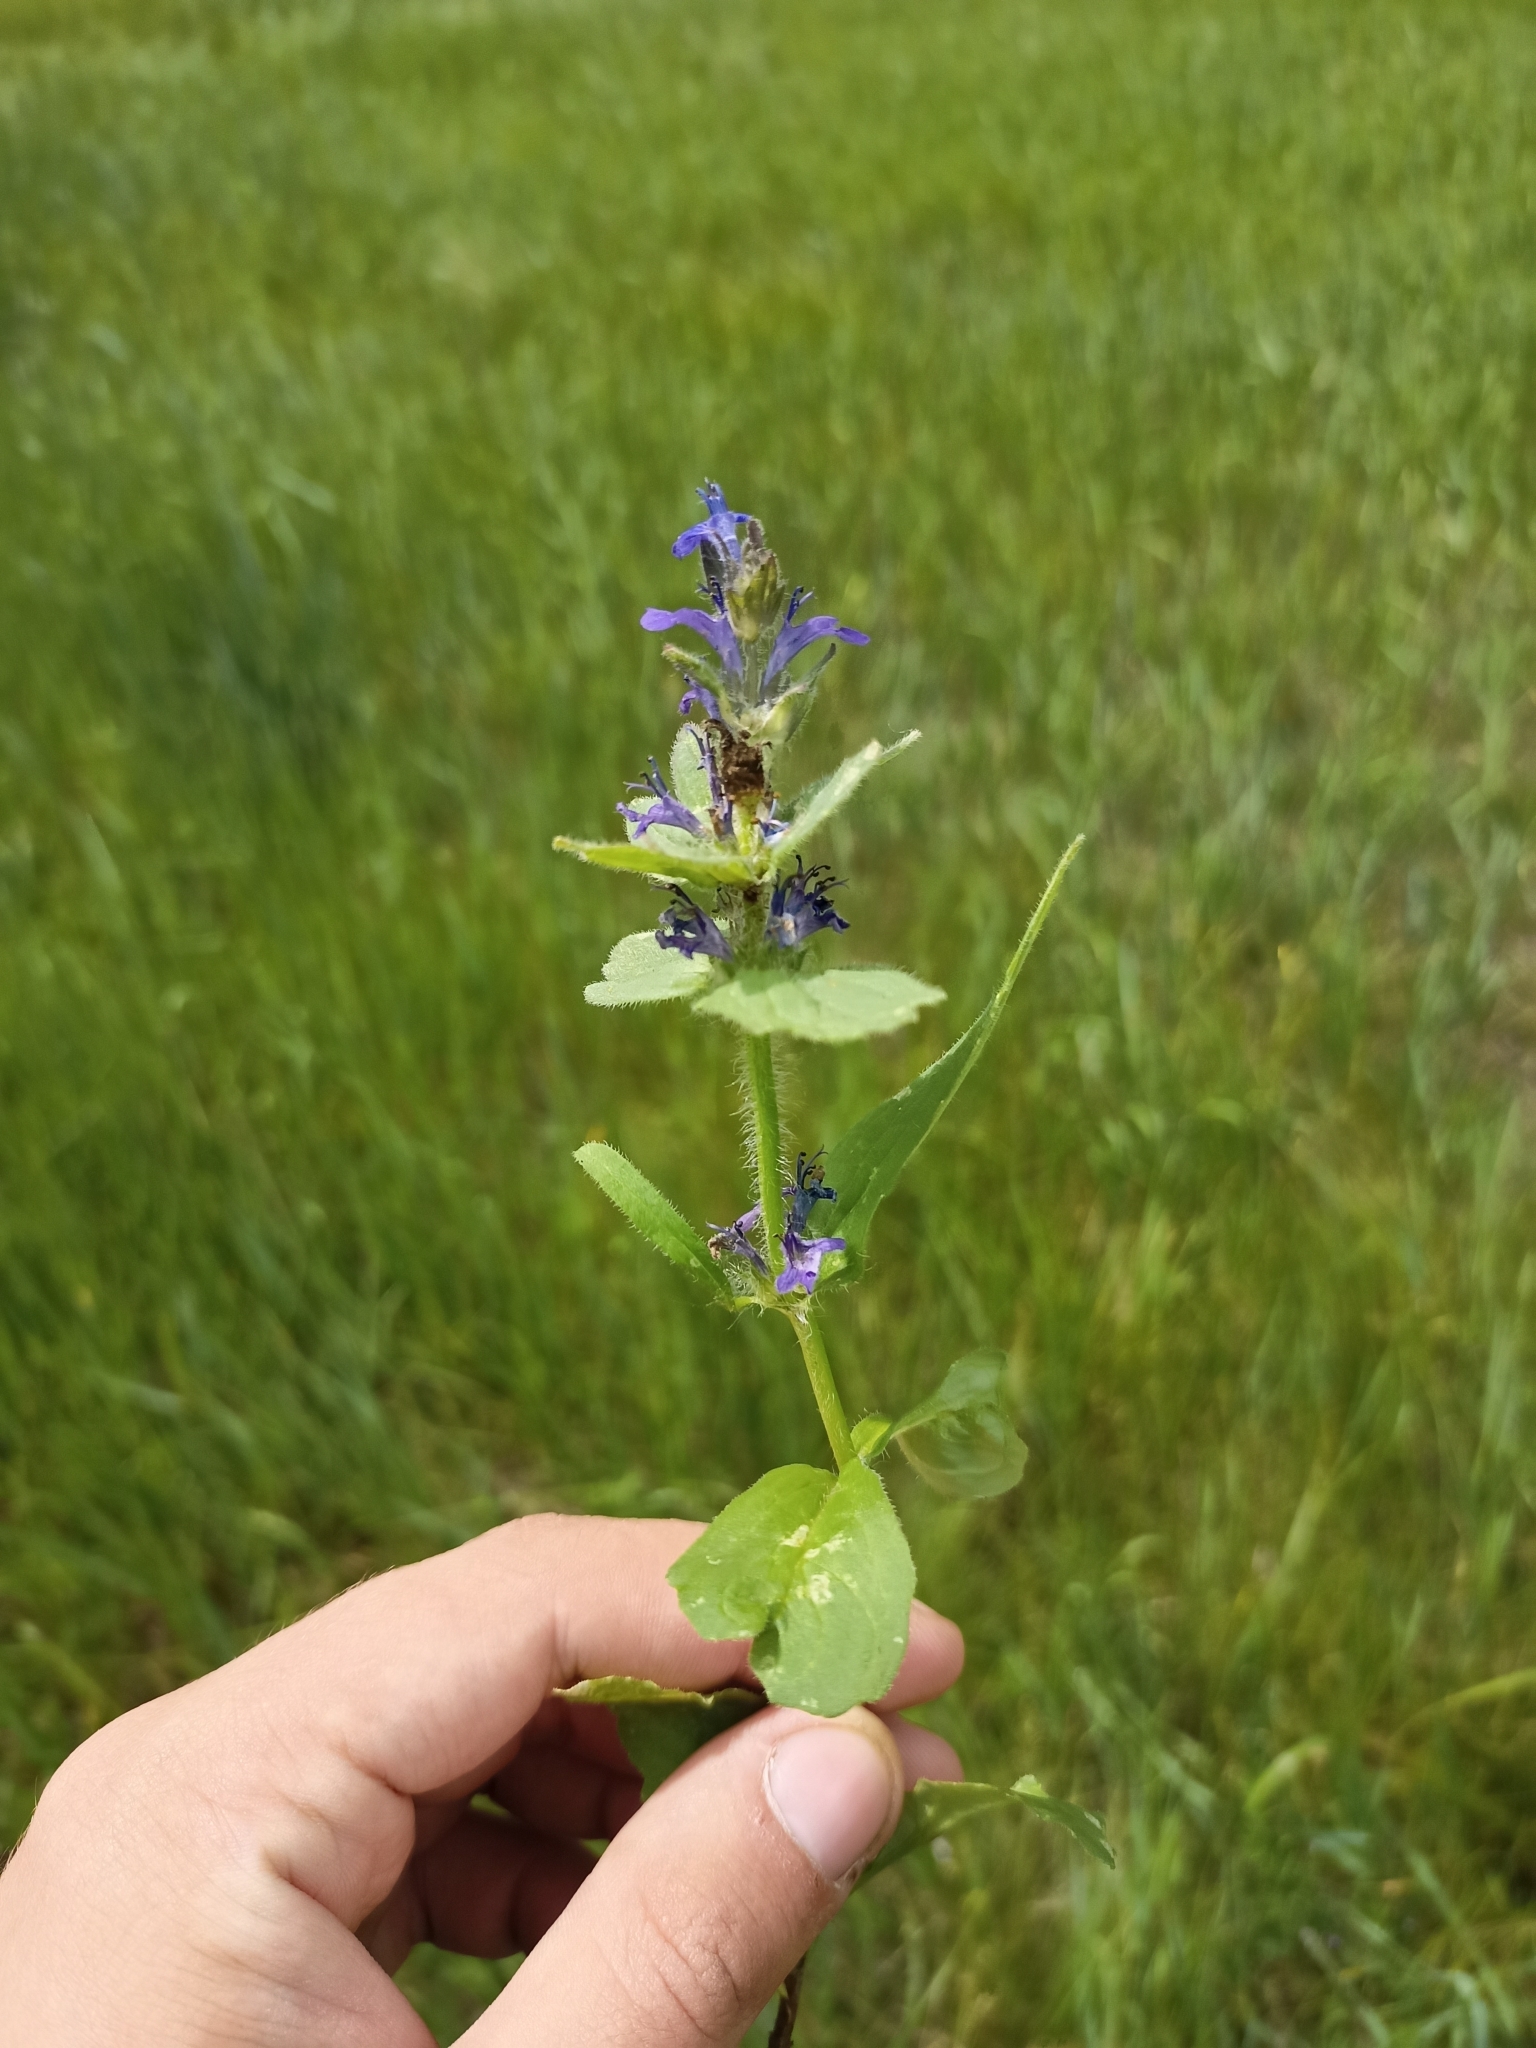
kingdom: Plantae
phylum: Tracheophyta
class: Magnoliopsida
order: Lamiales
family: Lamiaceae
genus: Ajuga
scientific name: Ajuga genevensis
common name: Blue bugle
